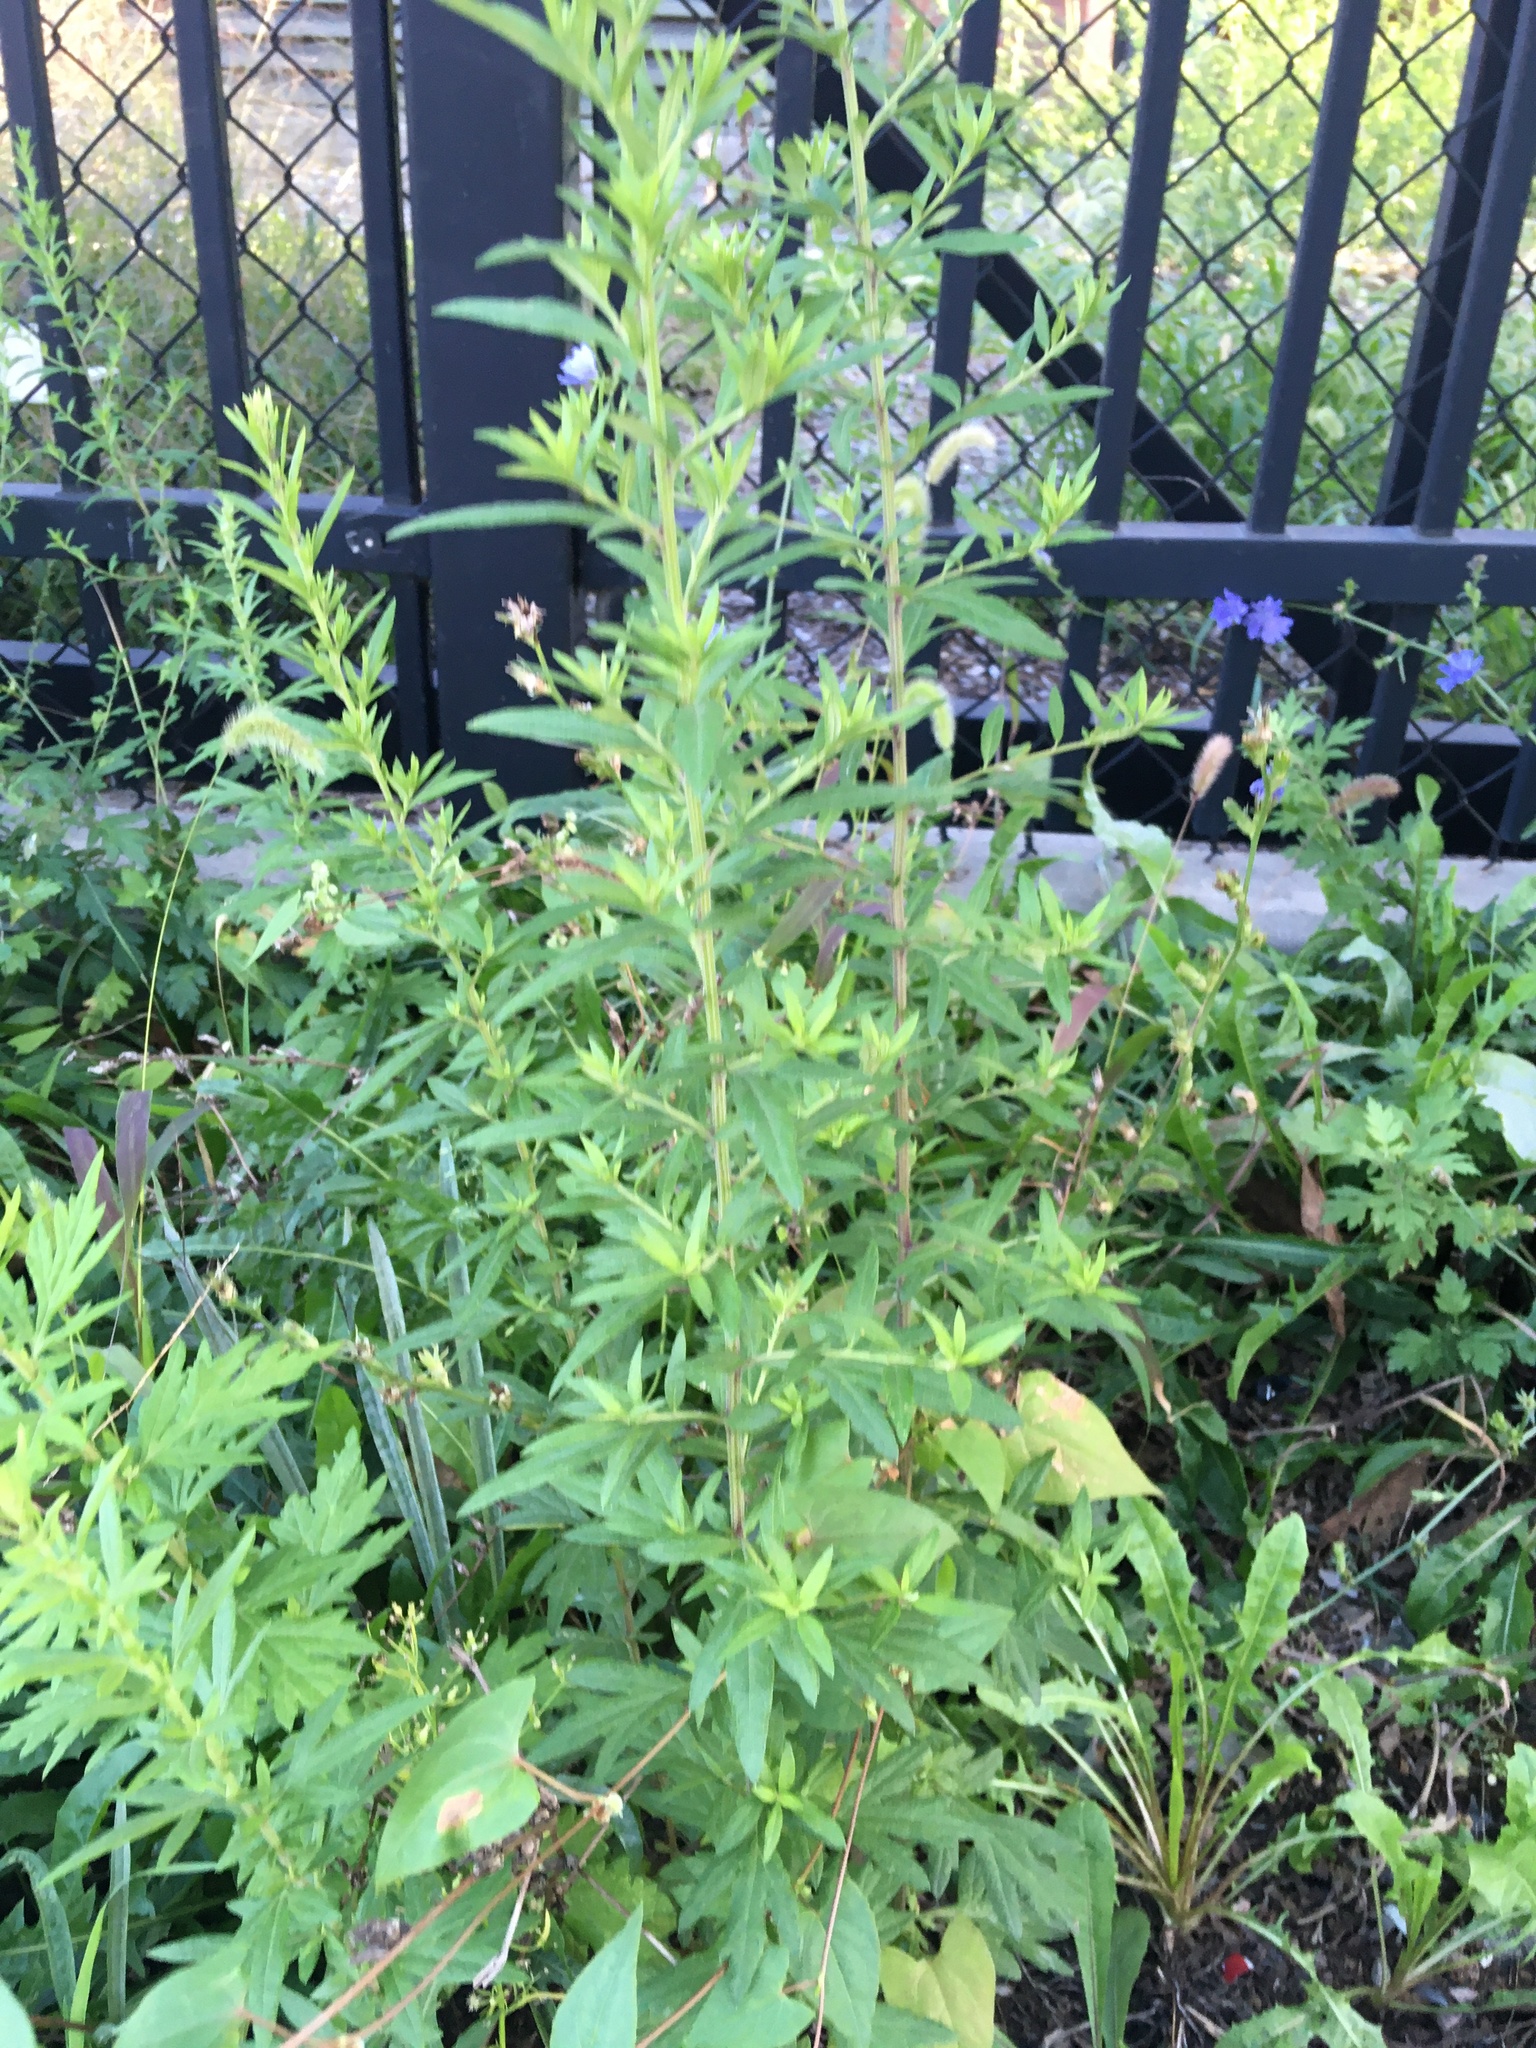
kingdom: Plantae
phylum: Tracheophyta
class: Magnoliopsida
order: Asterales
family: Asteraceae
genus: Artemisia
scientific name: Artemisia vulgaris
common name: Mugwort
